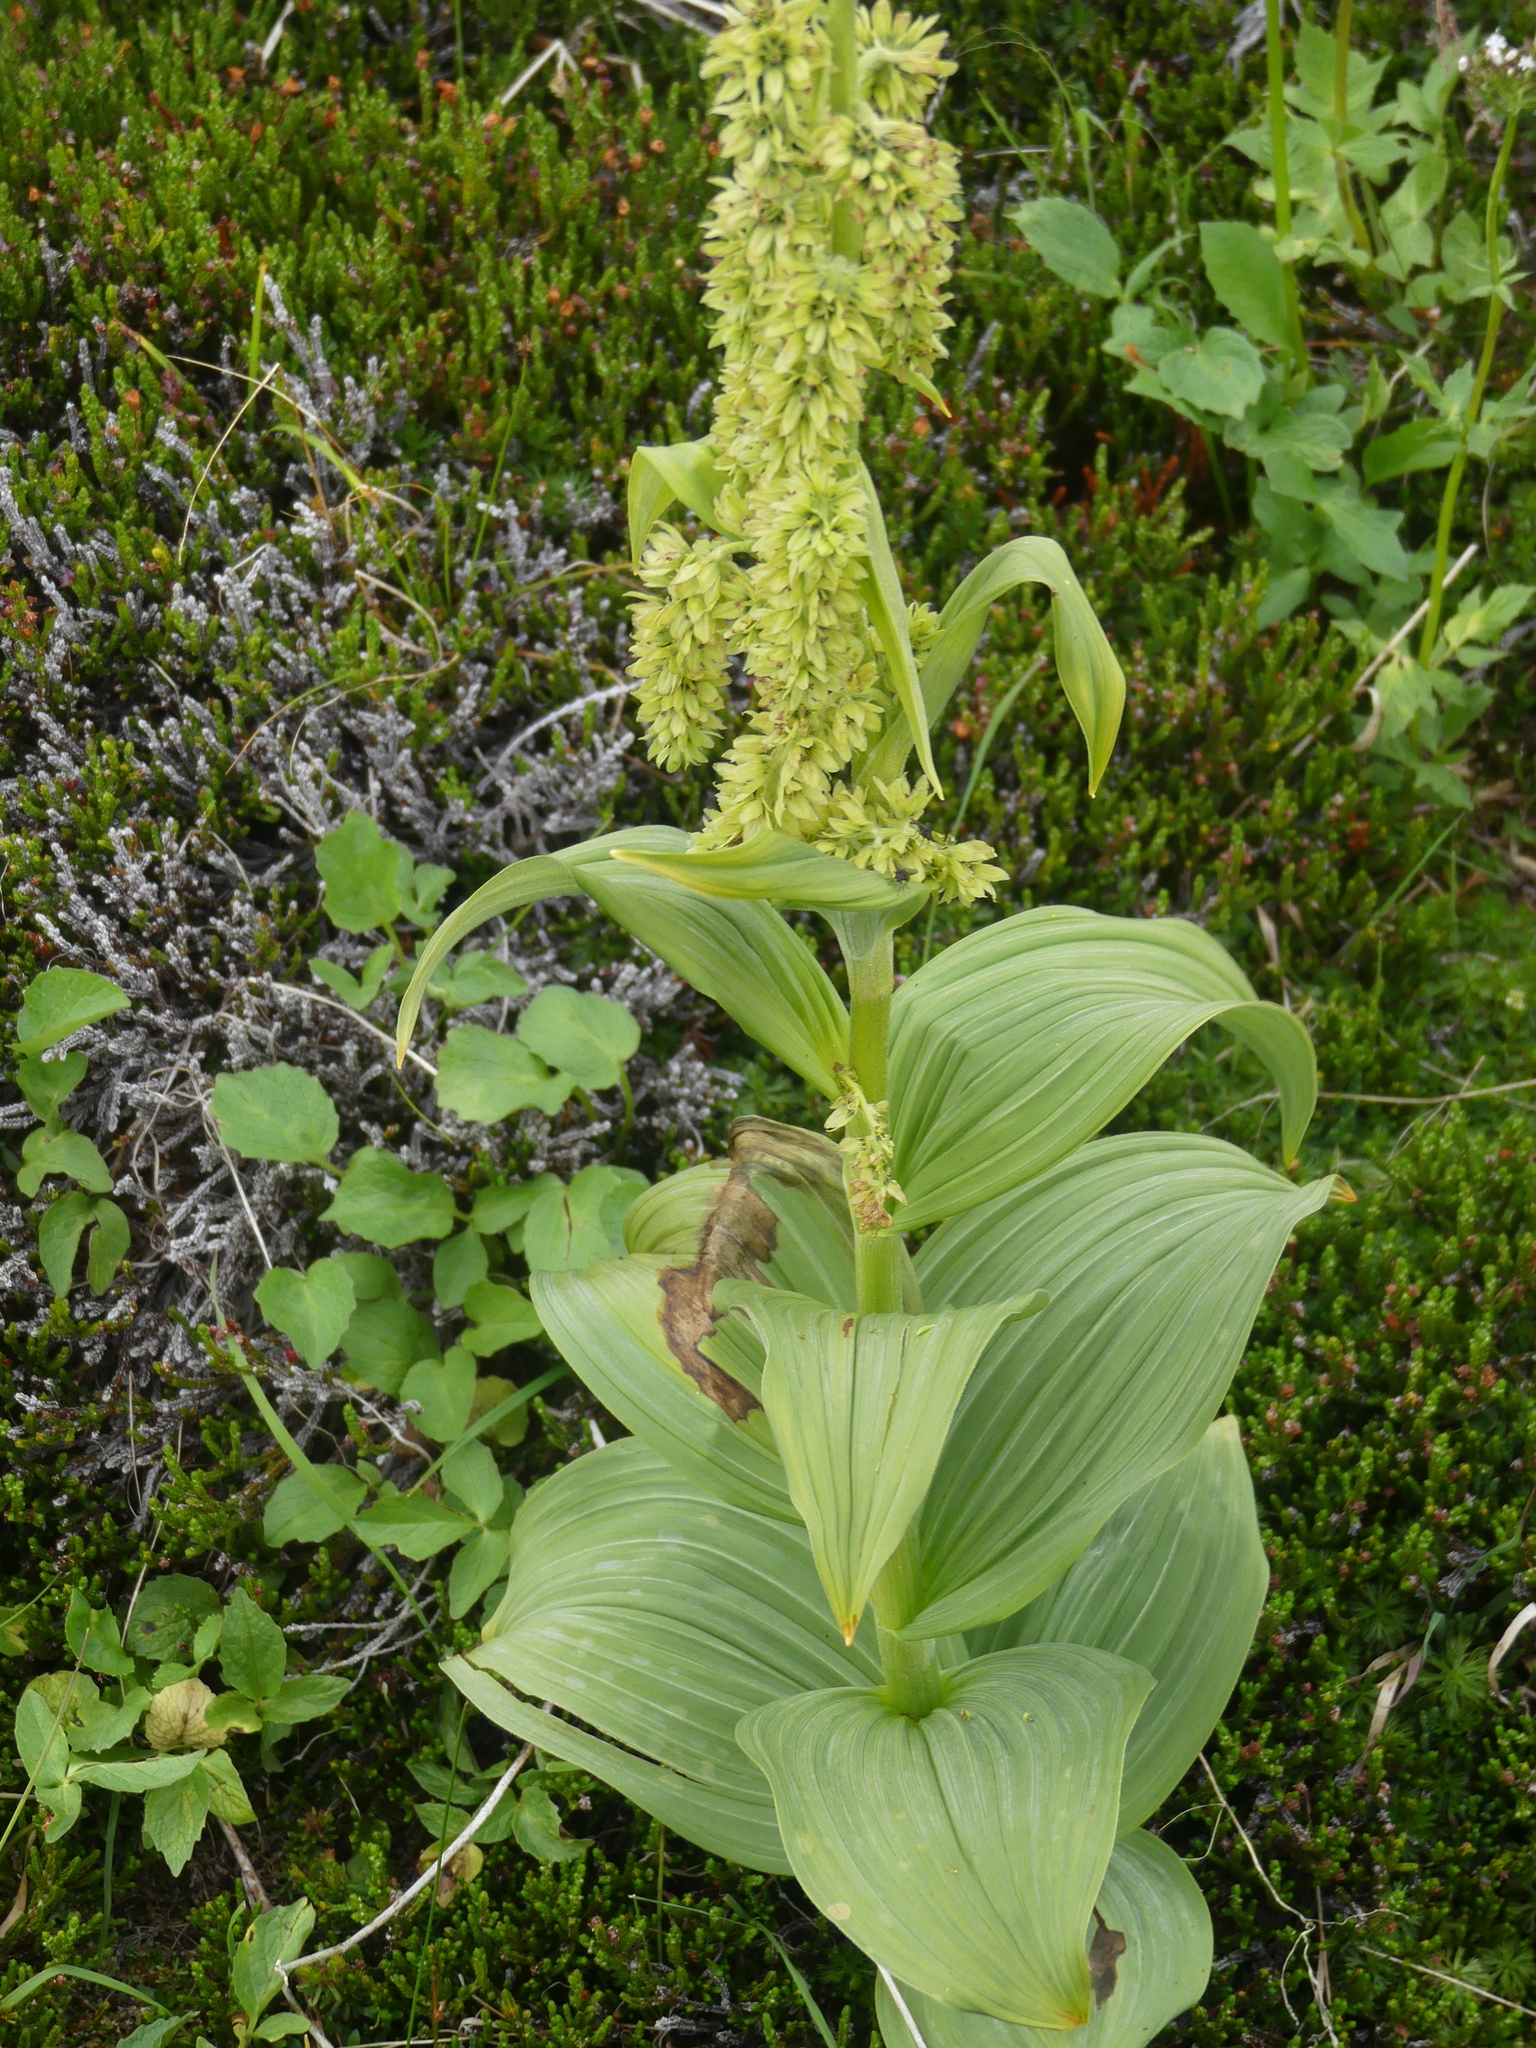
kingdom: Plantae
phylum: Tracheophyta
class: Liliopsida
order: Liliales
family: Melanthiaceae
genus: Veratrum
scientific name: Veratrum viride
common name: American false hellebore
